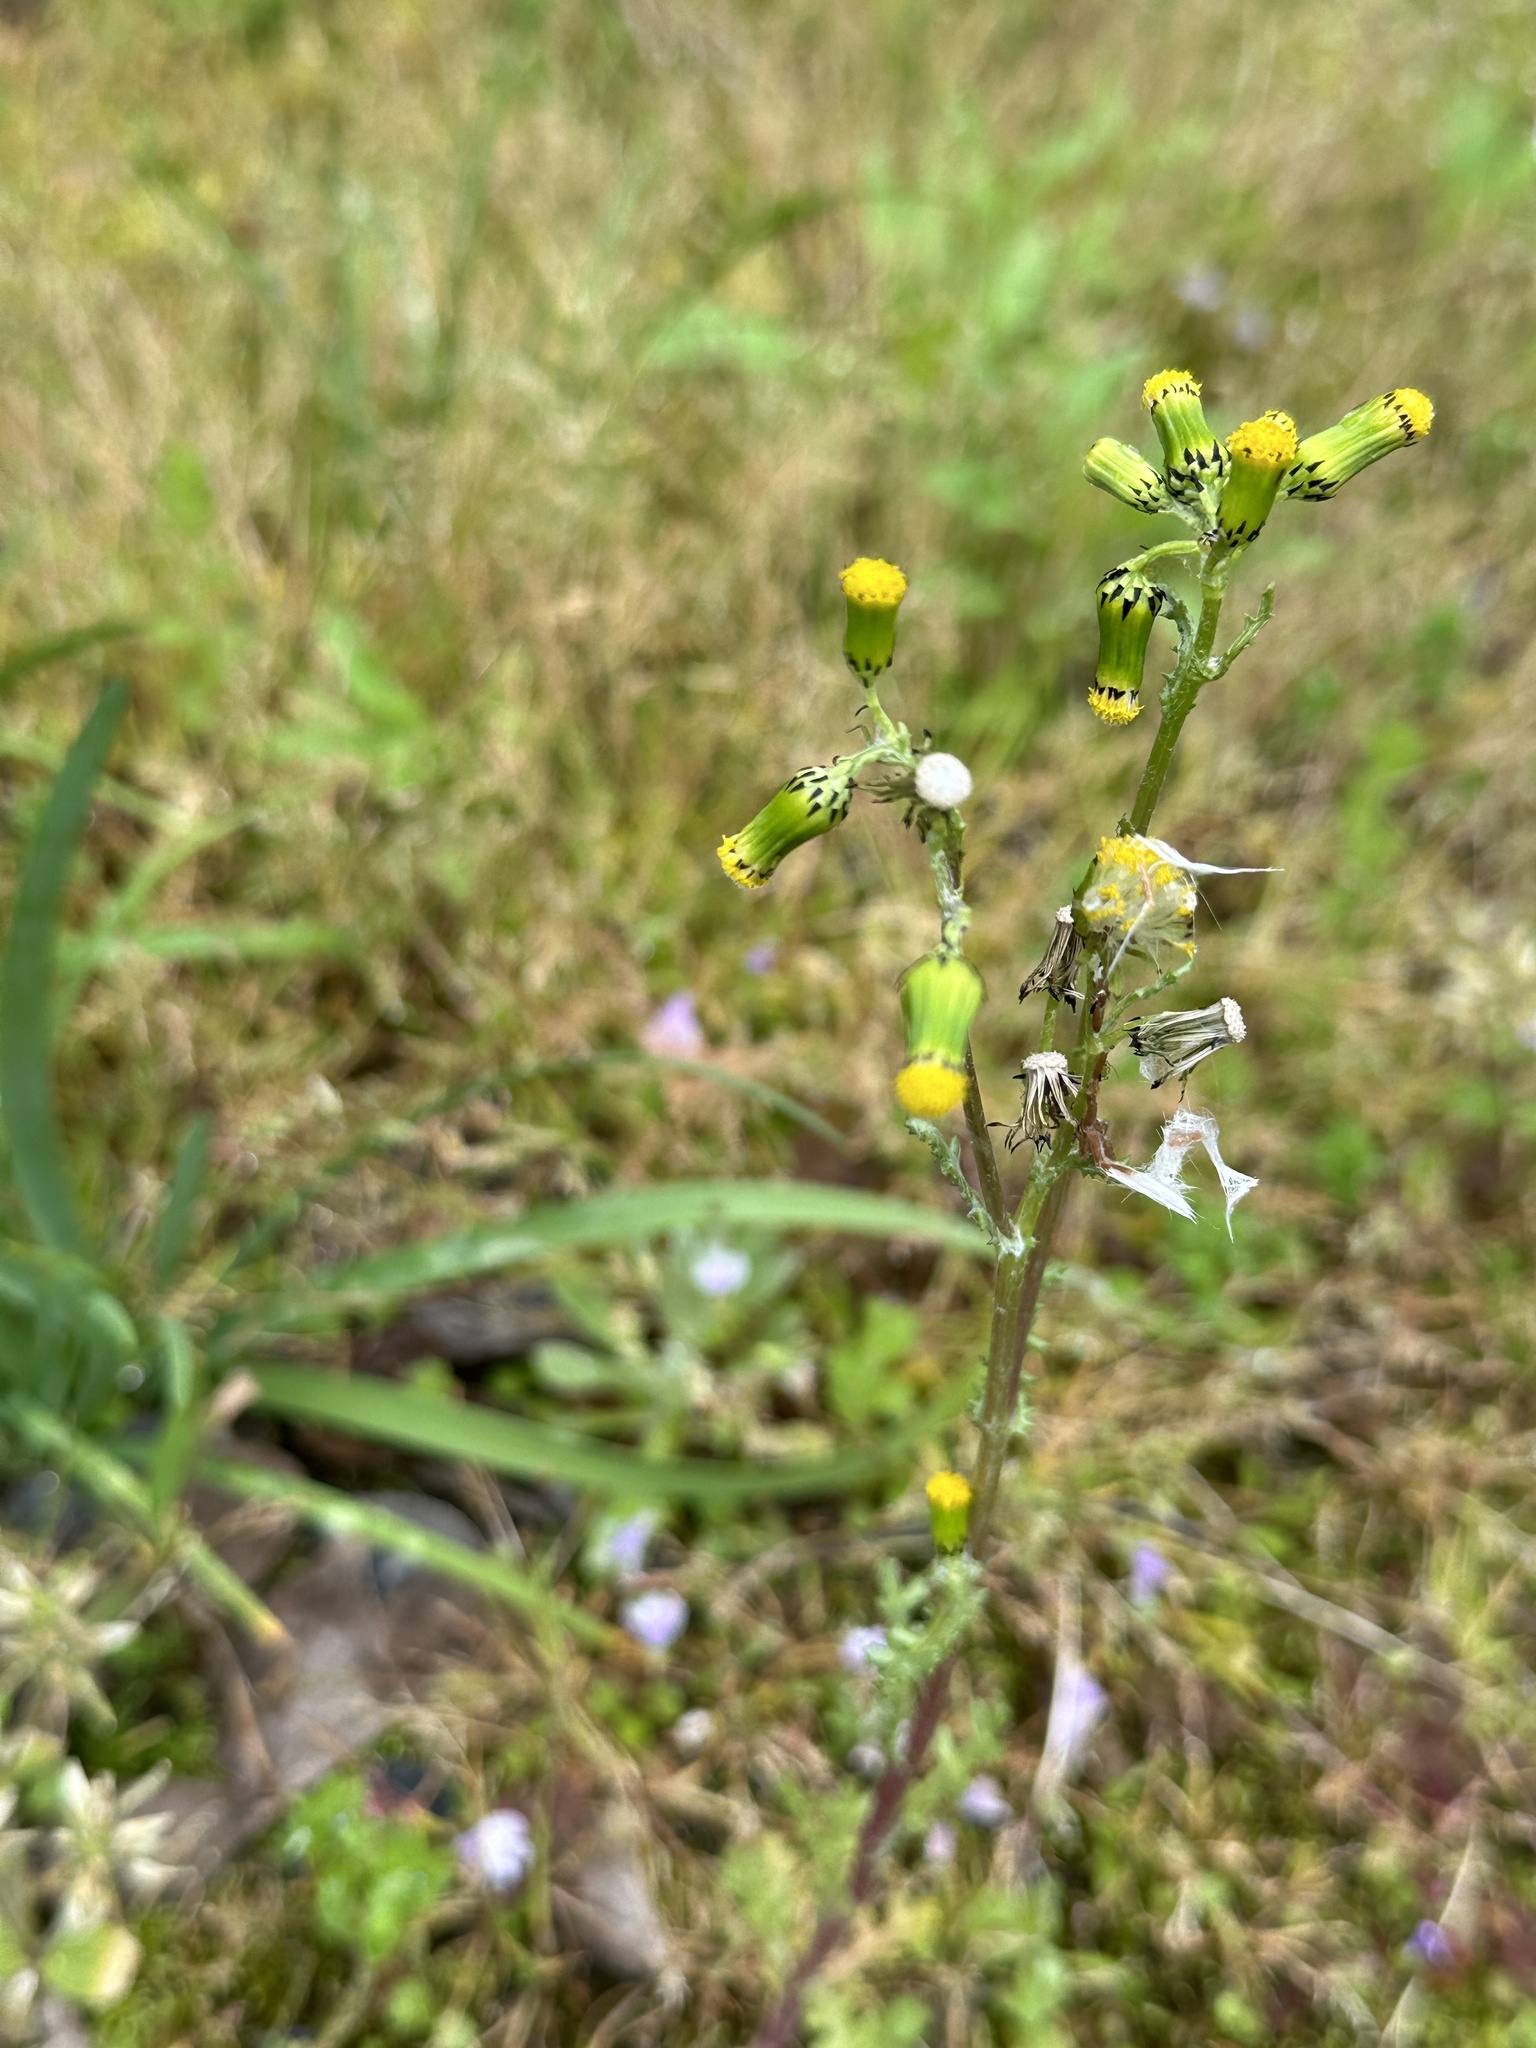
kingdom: Plantae
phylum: Tracheophyta
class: Magnoliopsida
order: Asterales
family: Asteraceae
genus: Senecio
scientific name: Senecio vulgaris
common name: Old-man-in-the-spring
